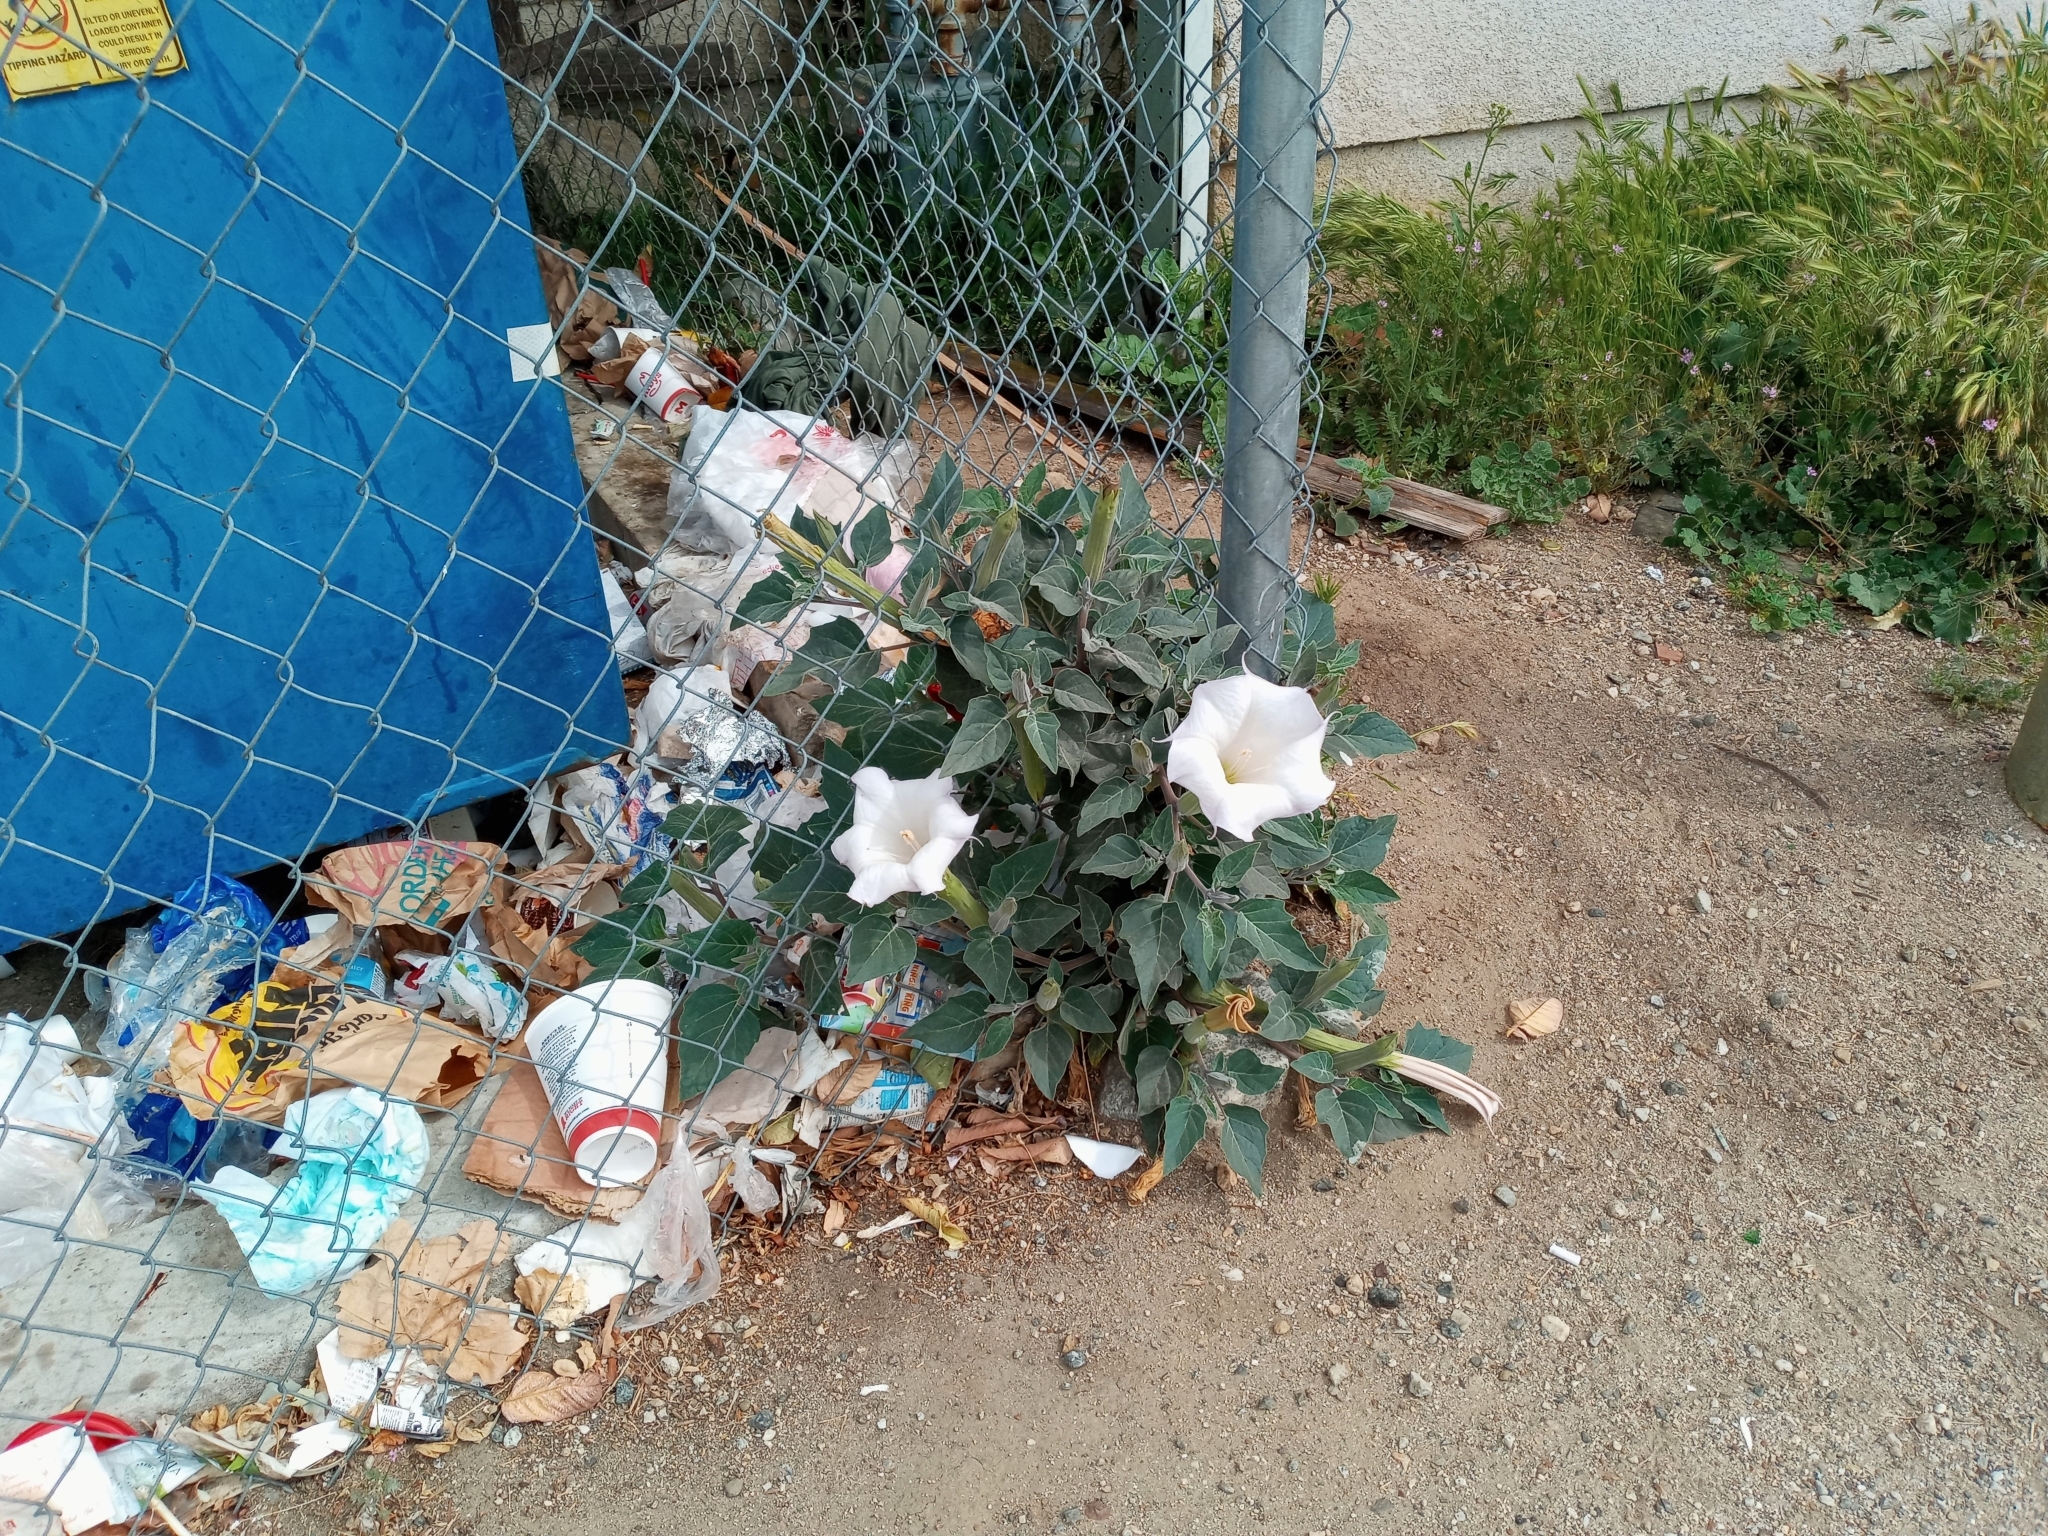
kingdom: Plantae
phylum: Tracheophyta
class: Magnoliopsida
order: Solanales
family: Solanaceae
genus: Datura
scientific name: Datura wrightii
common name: Sacred thorn-apple
